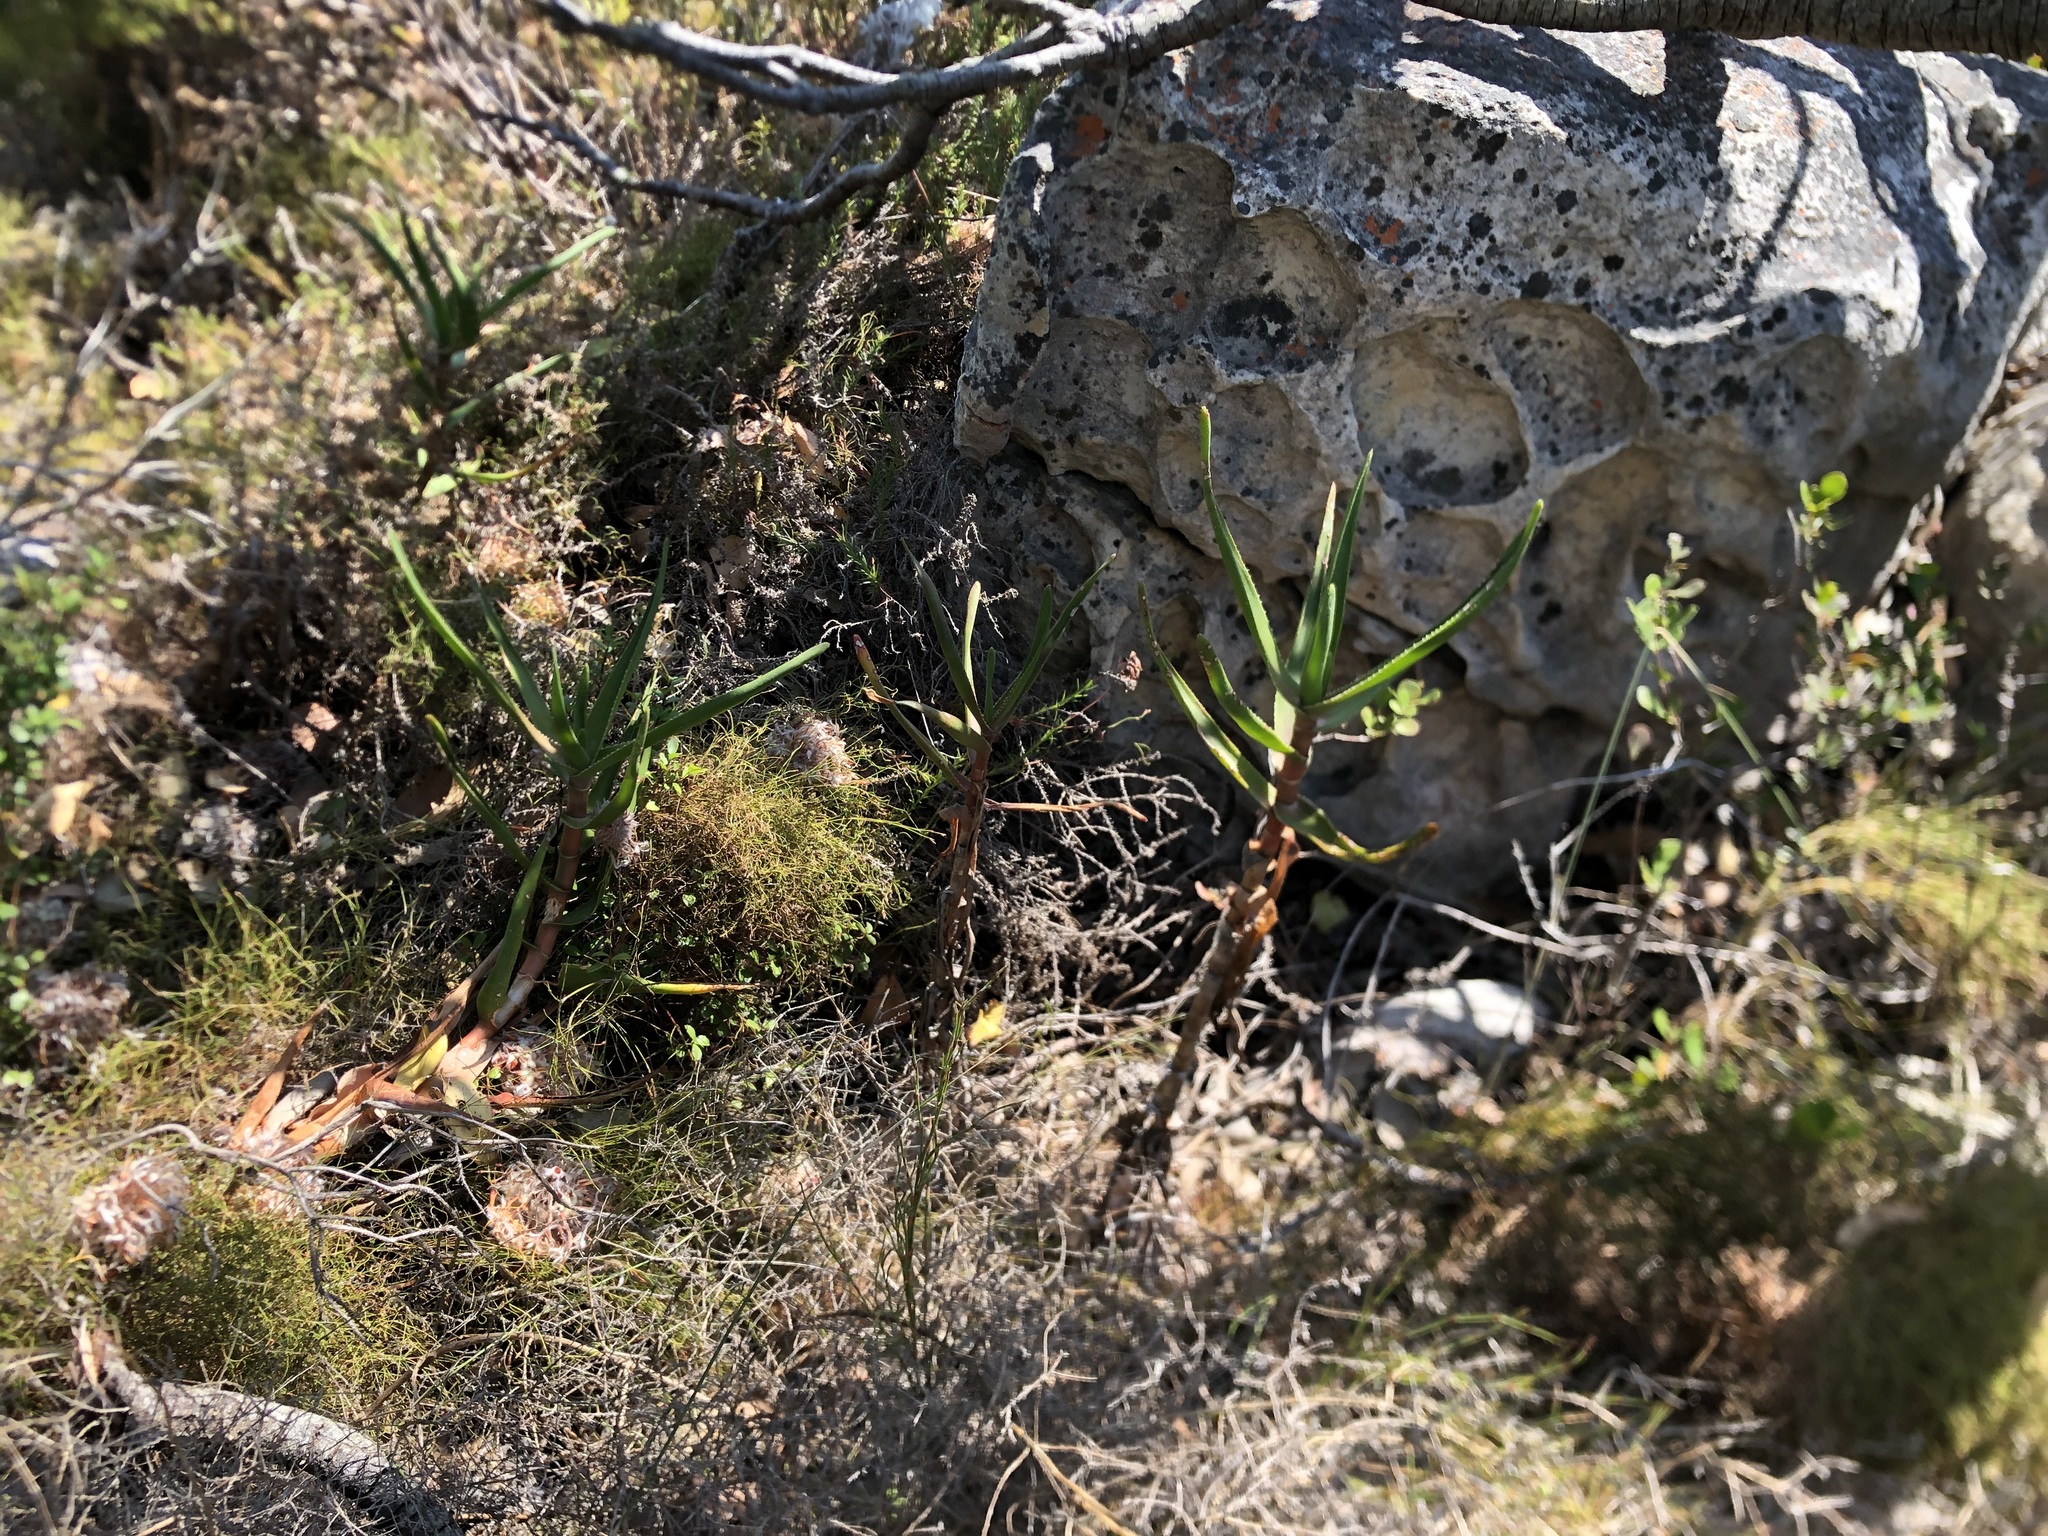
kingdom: Plantae
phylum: Tracheophyta
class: Liliopsida
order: Asparagales
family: Asphodelaceae
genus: Aloiampelos
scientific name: Aloiampelos commixta
